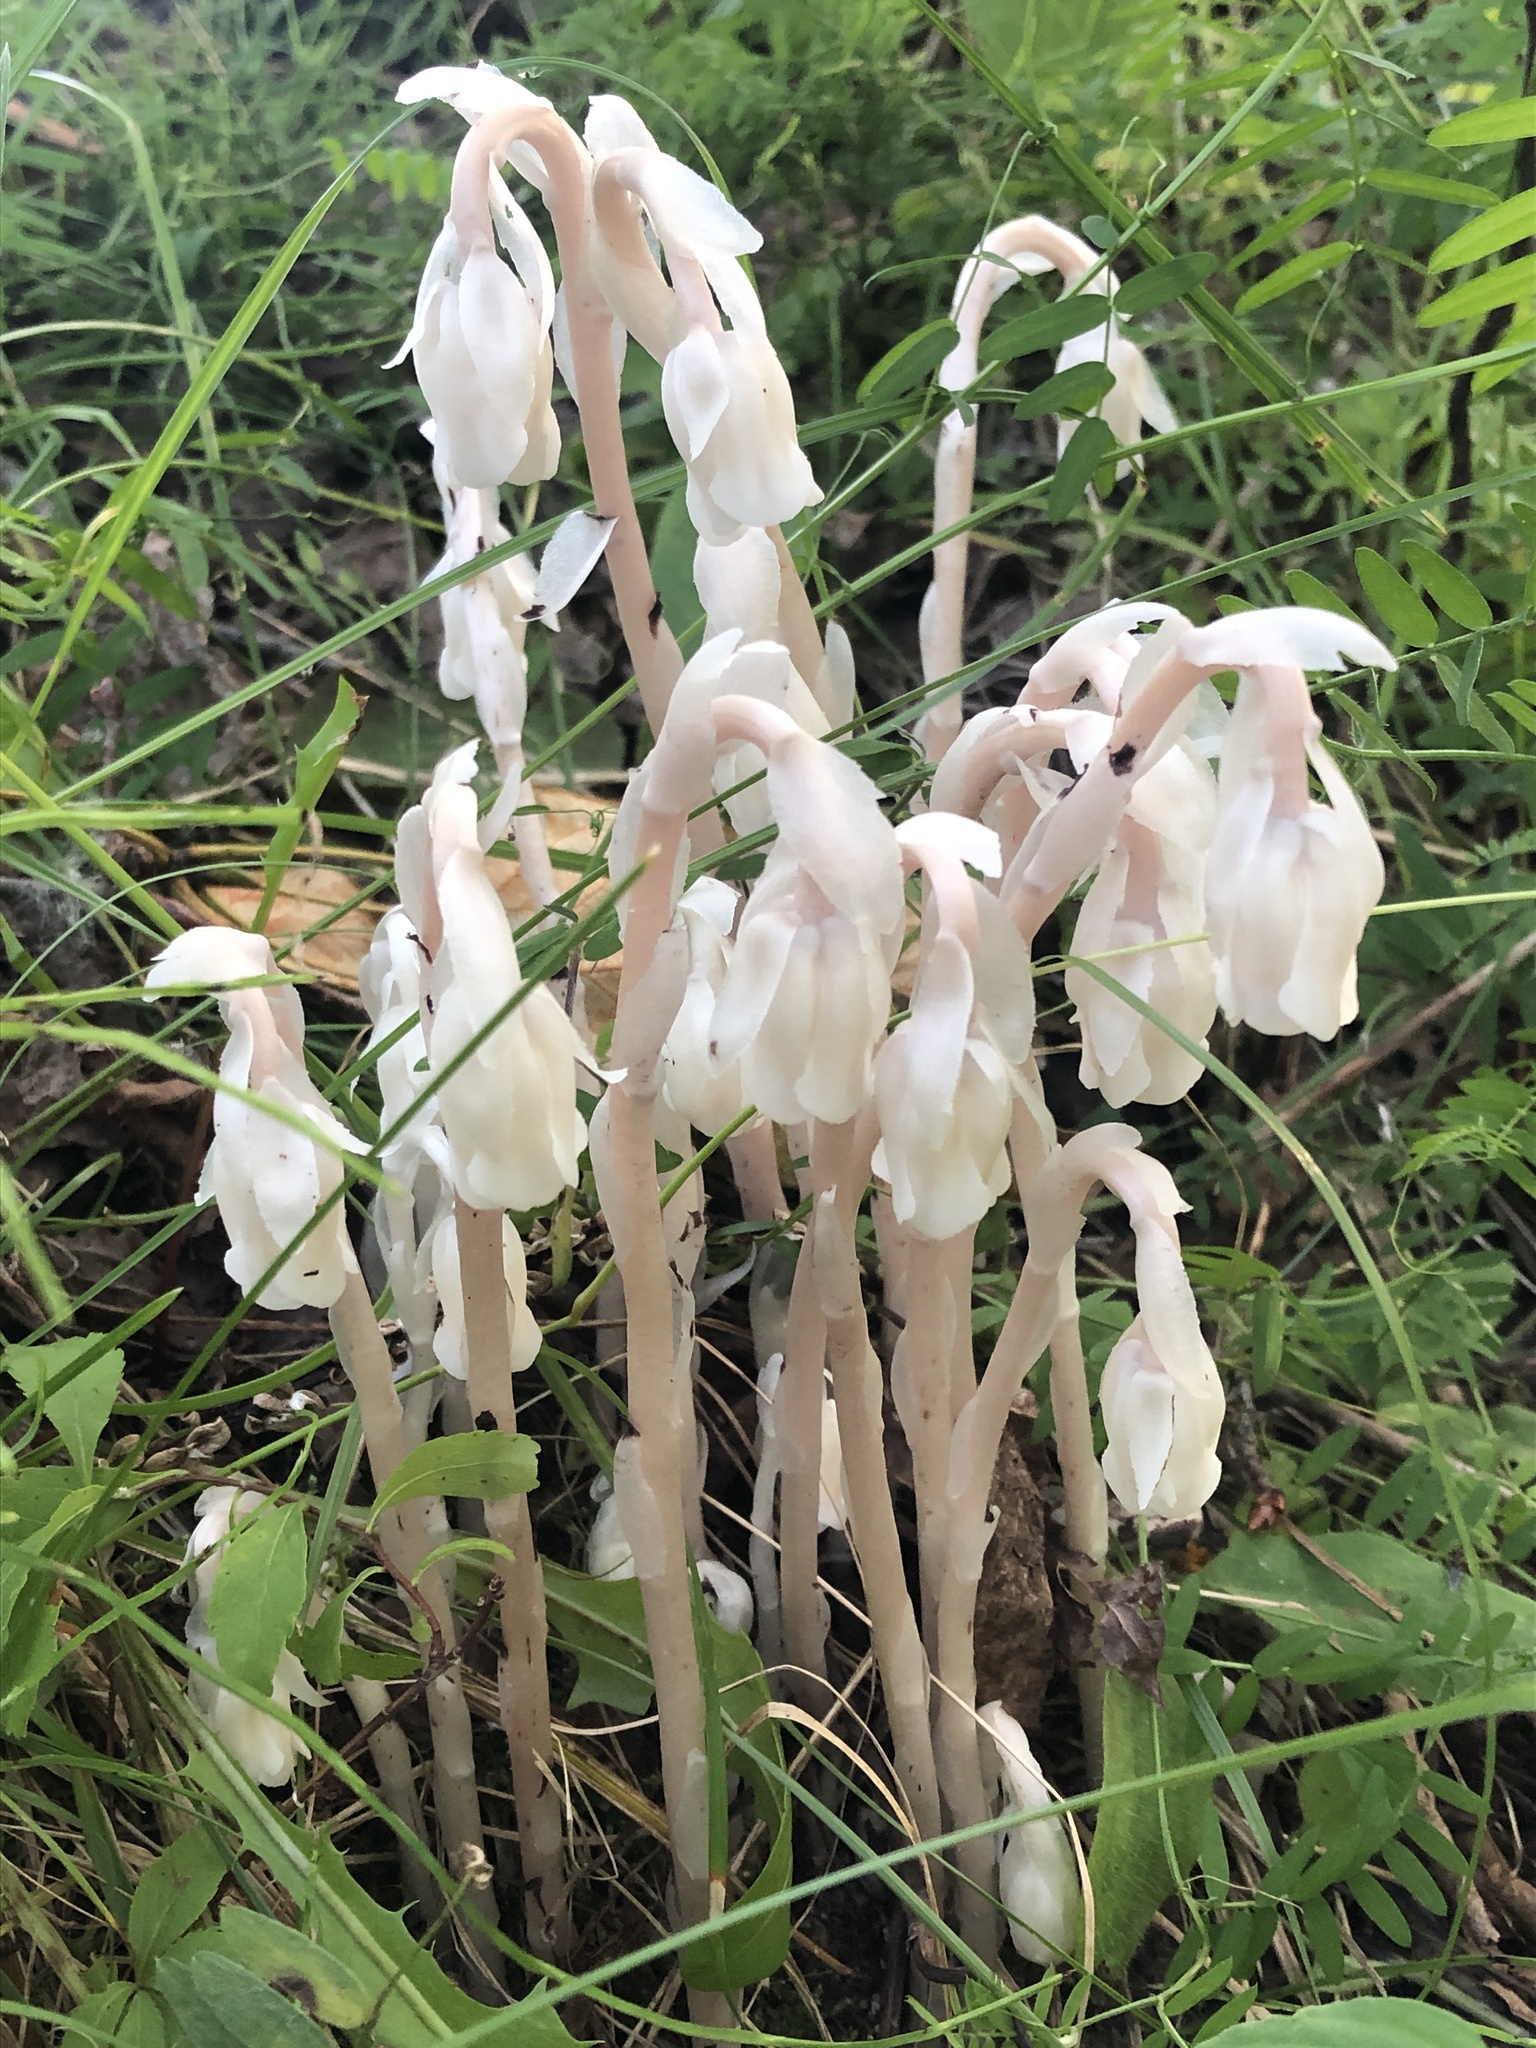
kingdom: Plantae
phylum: Tracheophyta
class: Magnoliopsida
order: Ericales
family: Ericaceae
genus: Monotropa
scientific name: Monotropa uniflora
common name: Convulsion root
